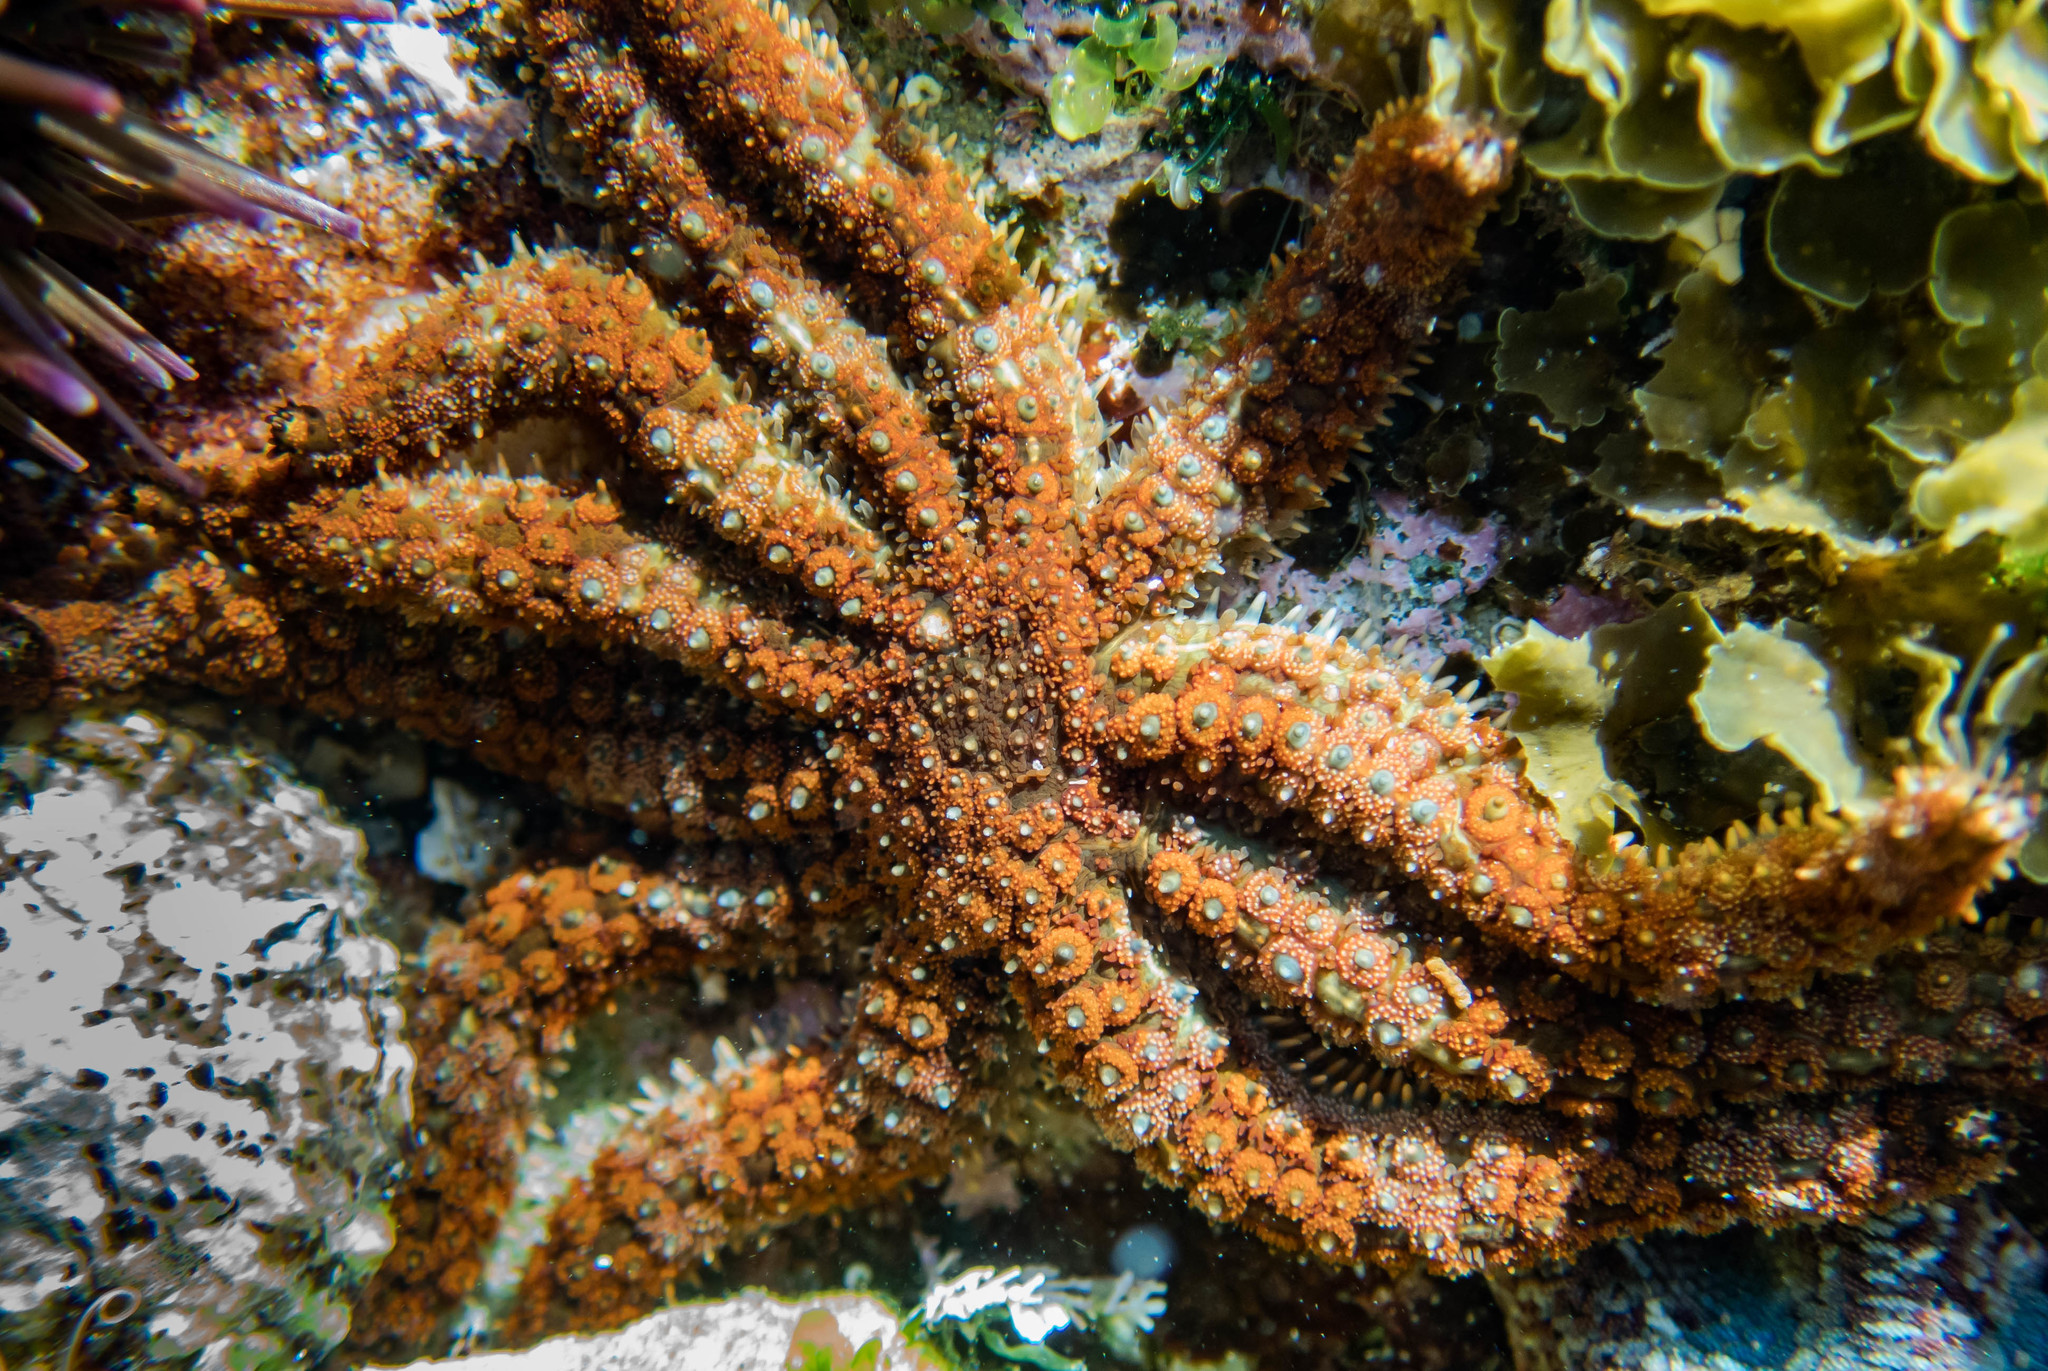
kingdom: Animalia
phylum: Echinodermata
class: Asteroidea
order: Forcipulatida
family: Asteriidae
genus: Coscinasterias
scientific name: Coscinasterias muricata
